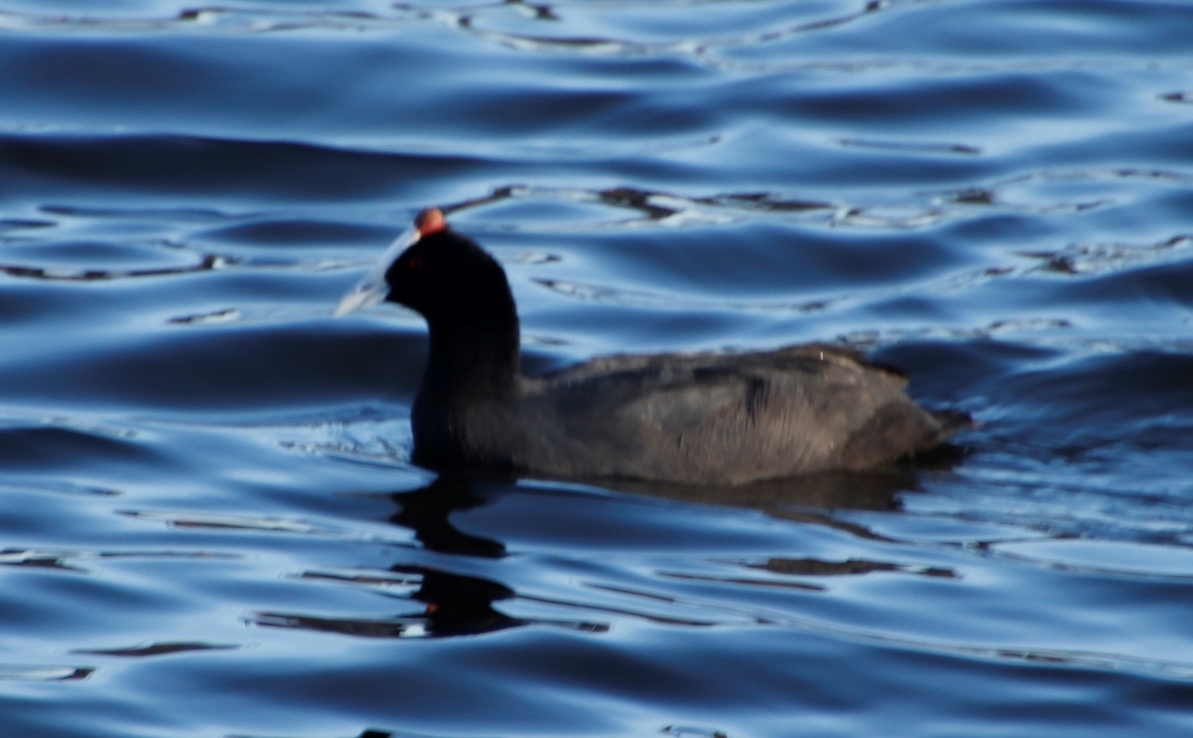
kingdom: Animalia
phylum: Chordata
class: Aves
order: Gruiformes
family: Rallidae
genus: Fulica
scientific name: Fulica cristata
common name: Red-knobbed coot
